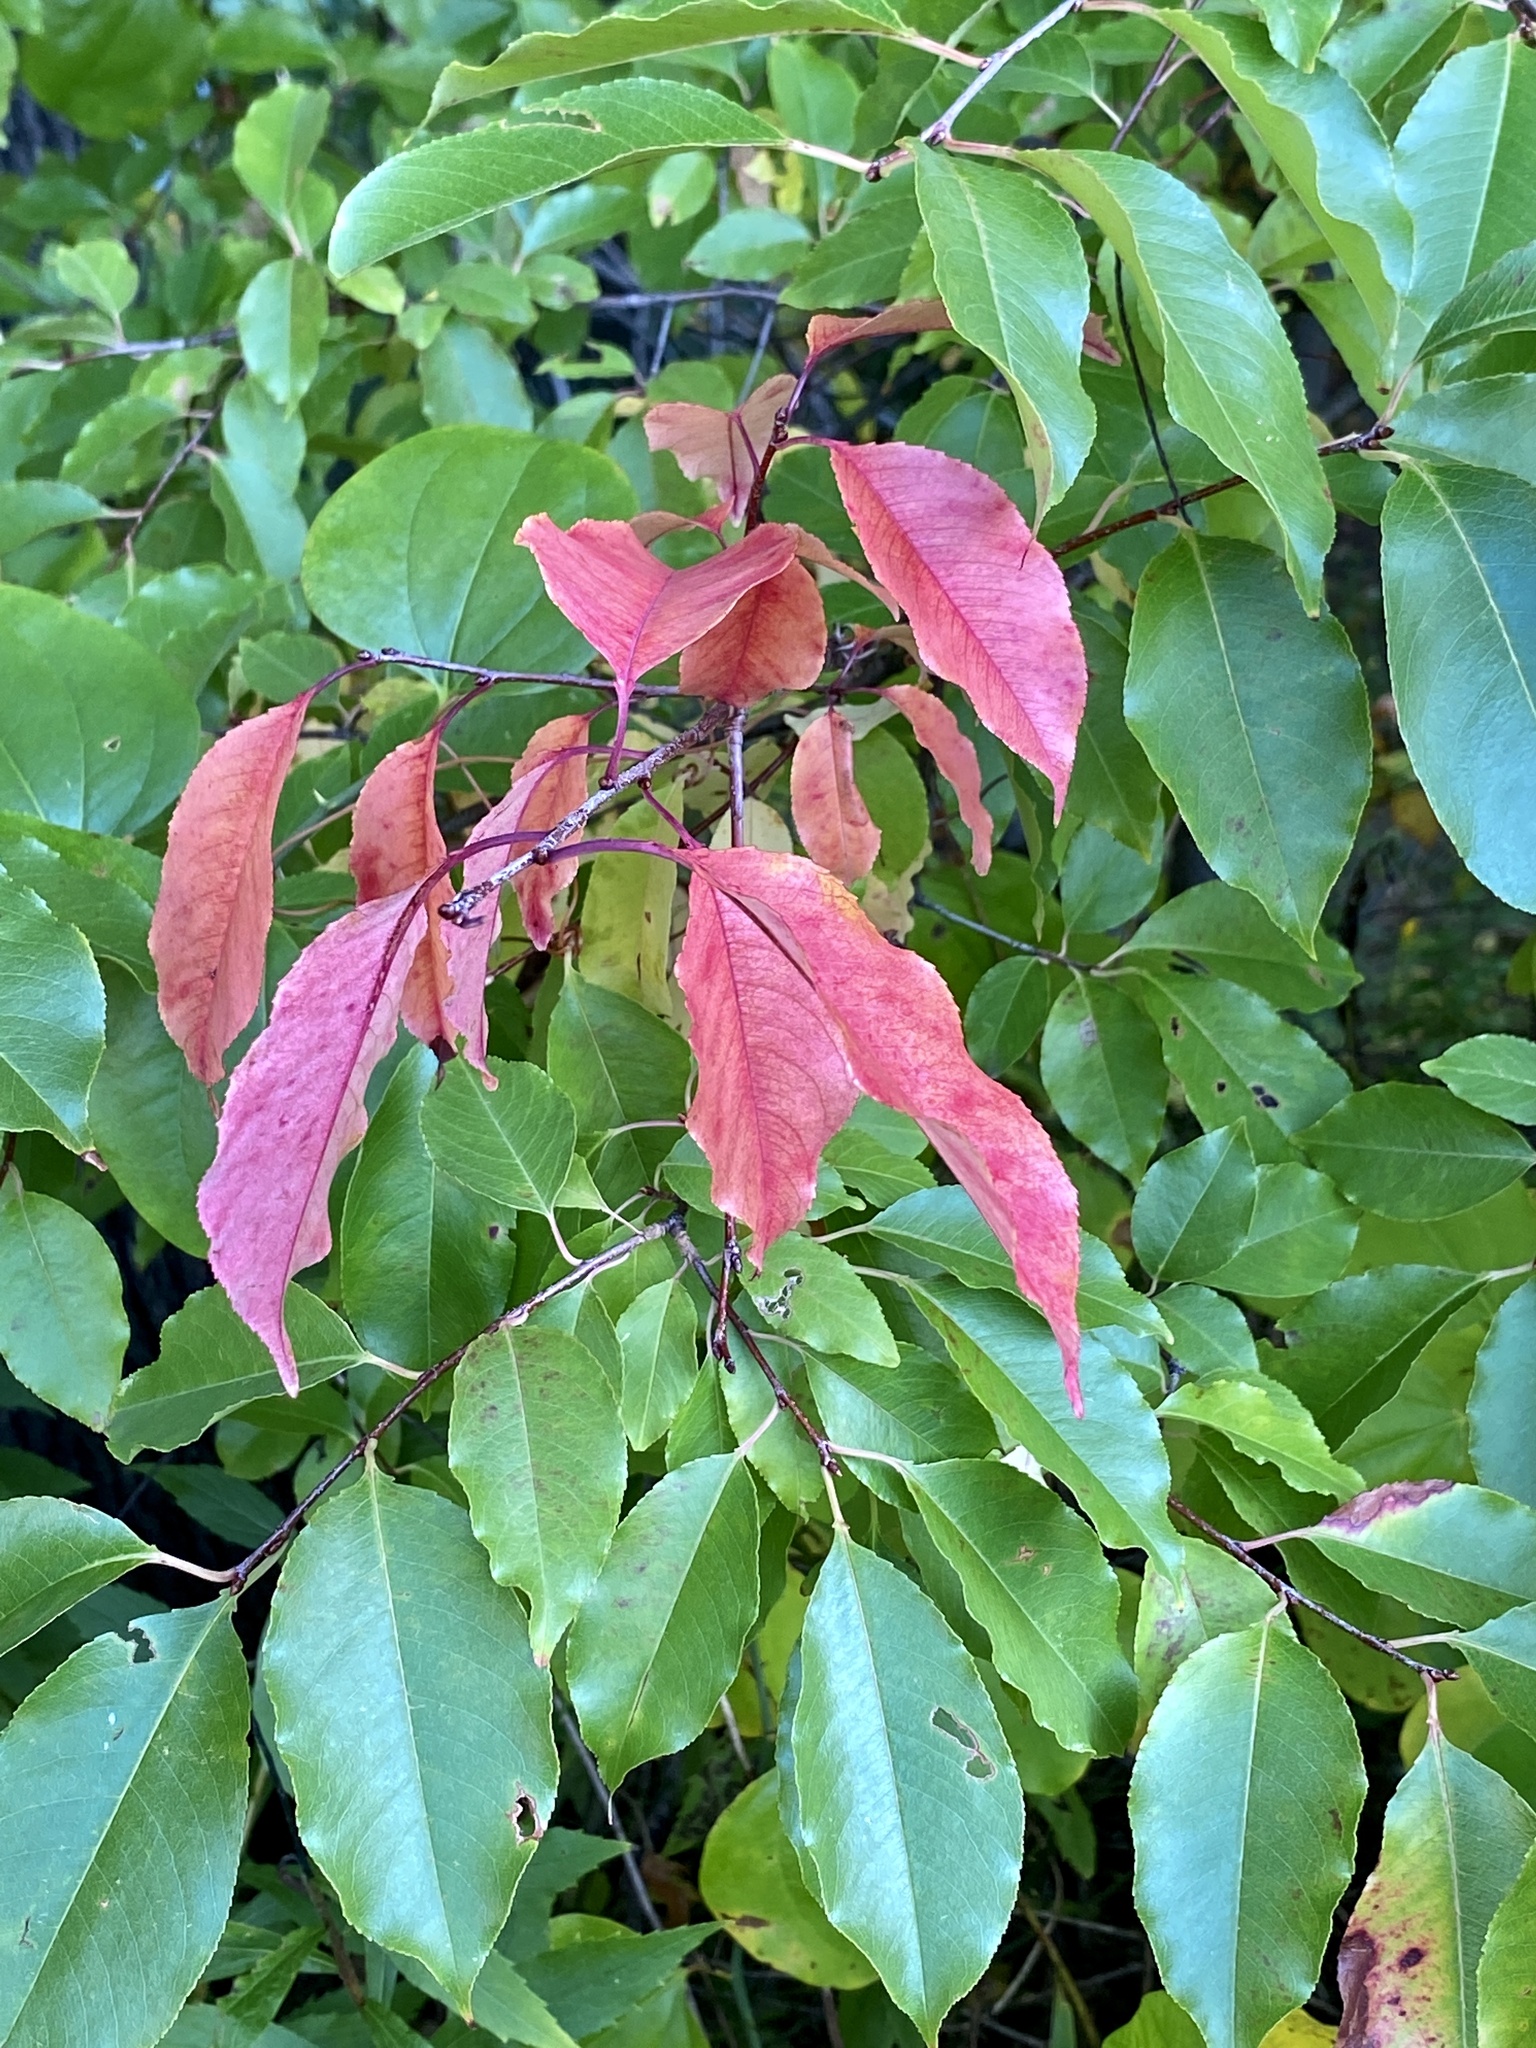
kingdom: Plantae
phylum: Tracheophyta
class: Magnoliopsida
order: Rosales
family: Rosaceae
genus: Prunus
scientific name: Prunus serotina
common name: Black cherry
